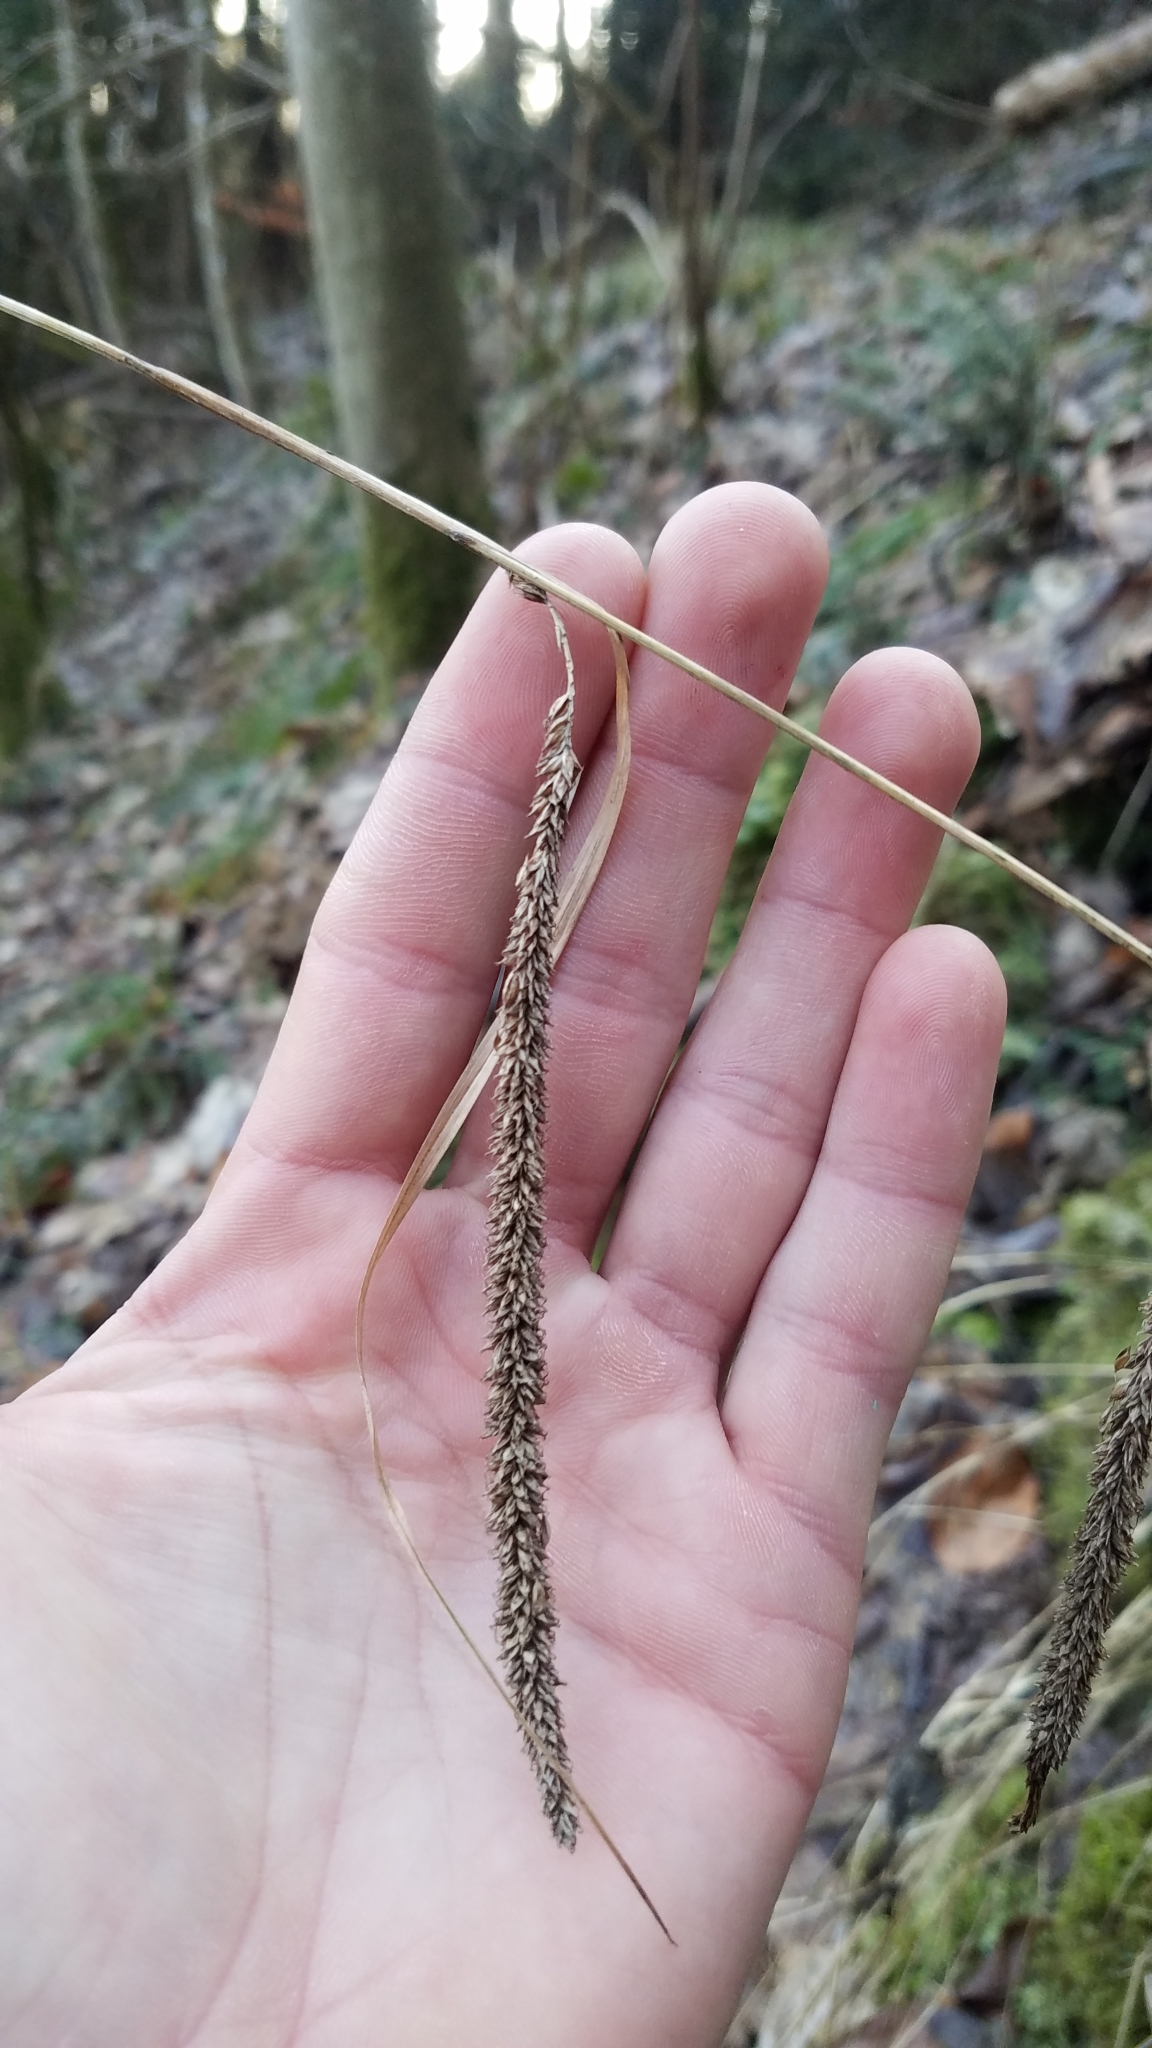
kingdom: Plantae
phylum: Tracheophyta
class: Liliopsida
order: Poales
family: Cyperaceae
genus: Carex
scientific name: Carex pendula
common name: Pendulous sedge
